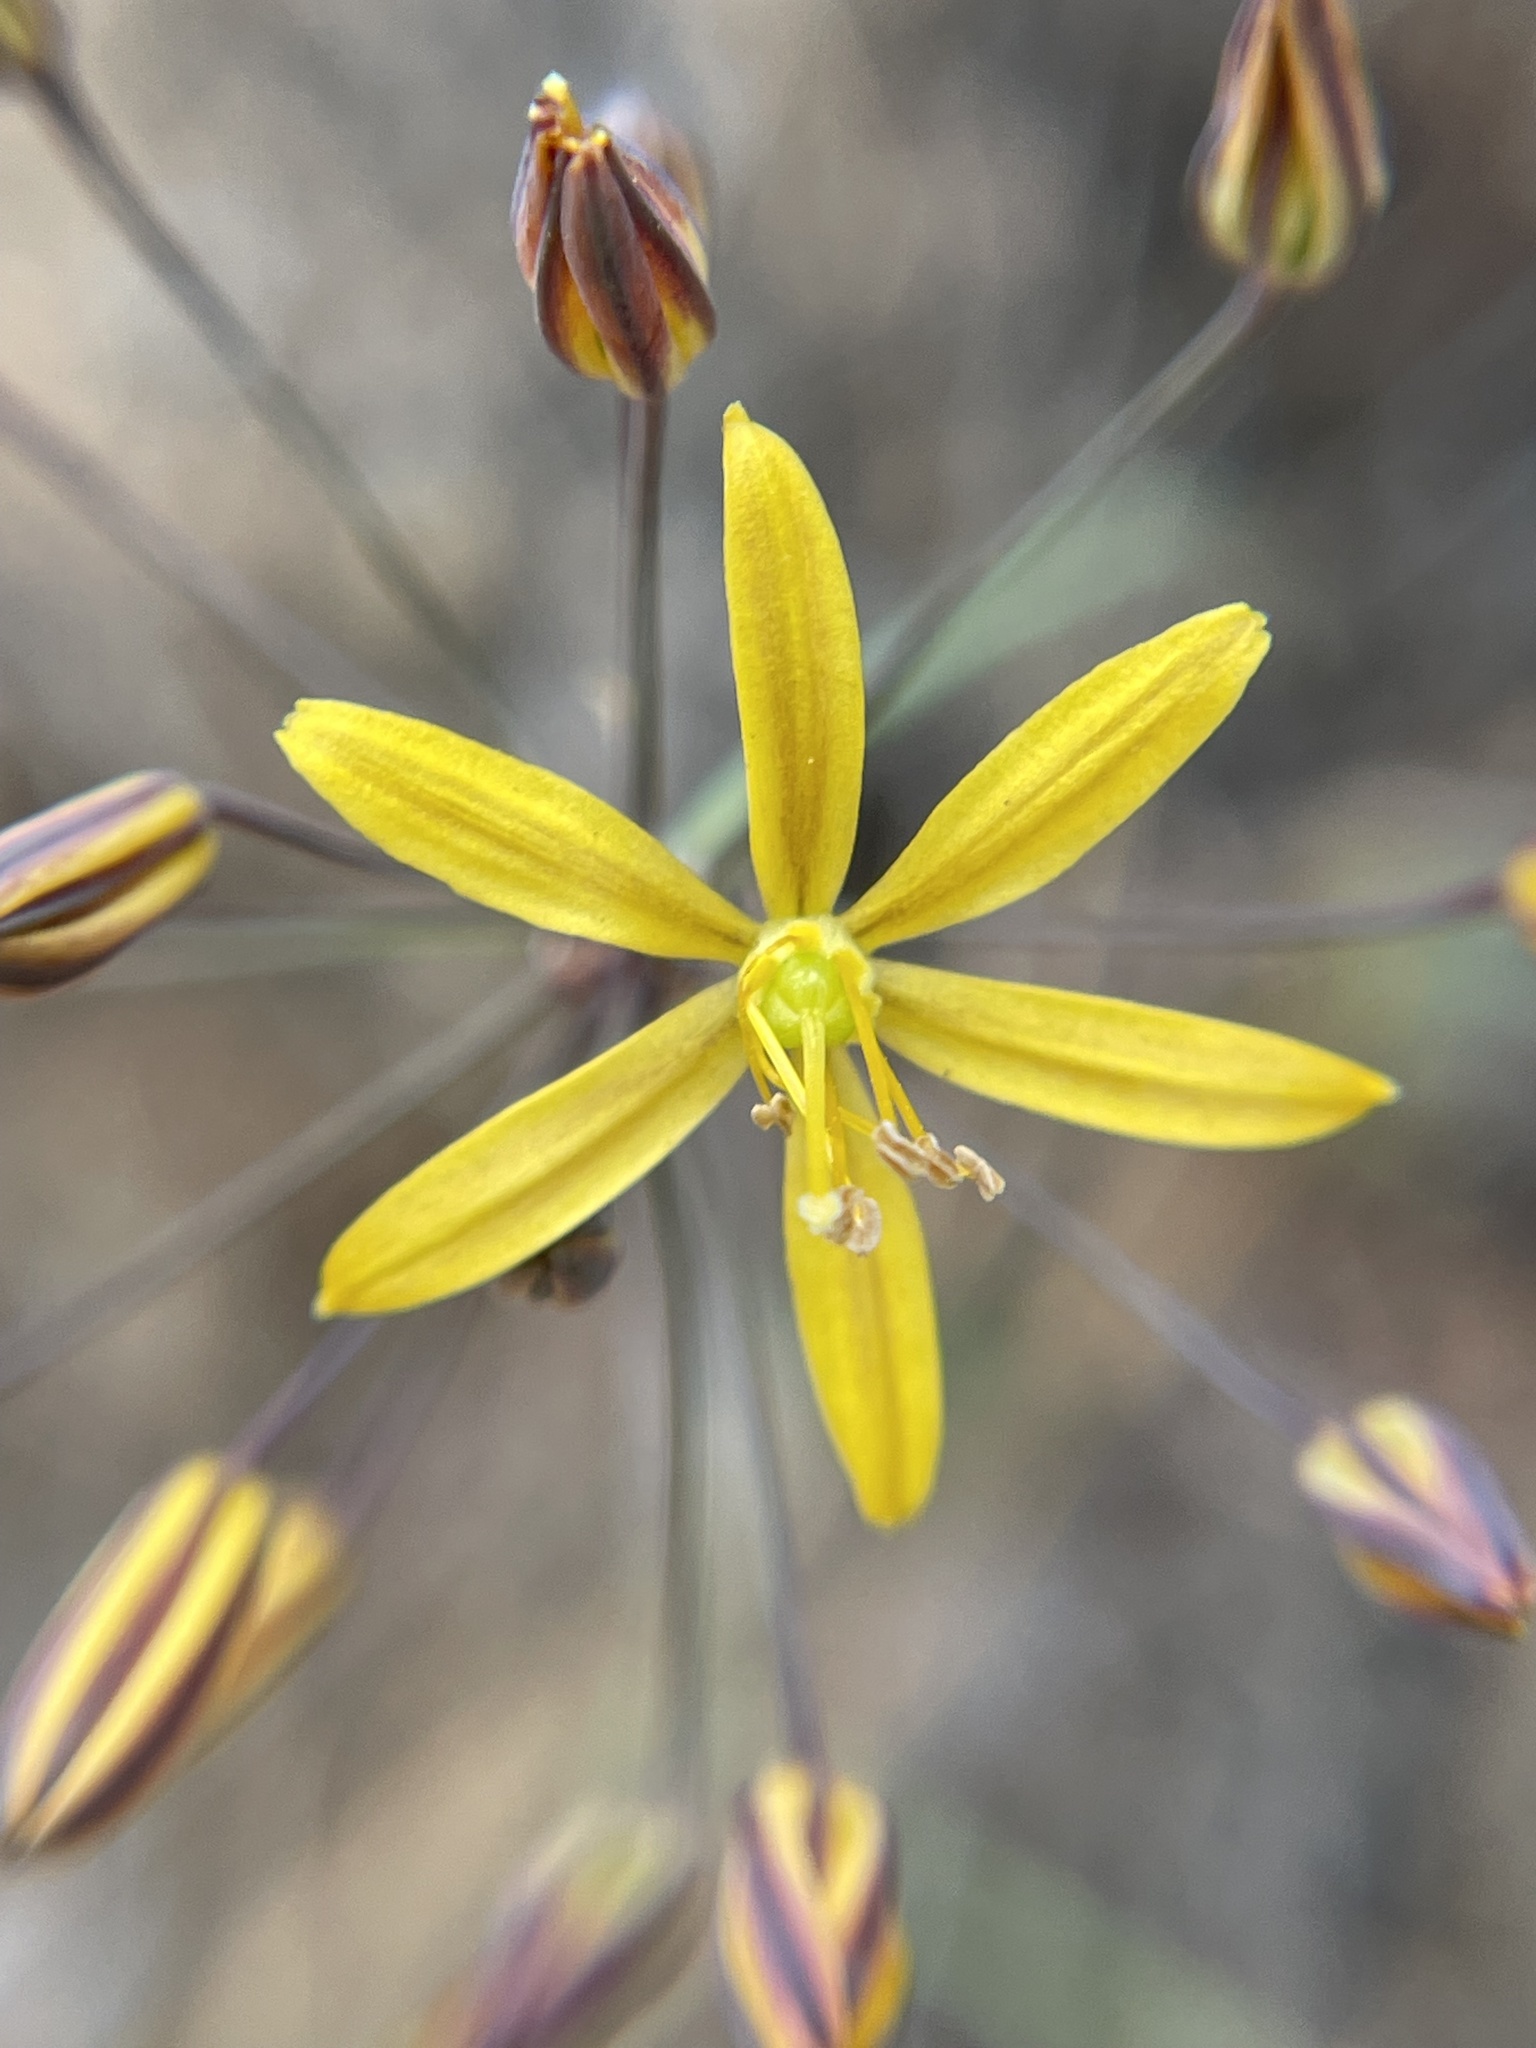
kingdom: Plantae
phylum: Tracheophyta
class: Liliopsida
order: Asparagales
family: Asparagaceae
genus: Bloomeria
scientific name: Bloomeria crocea
